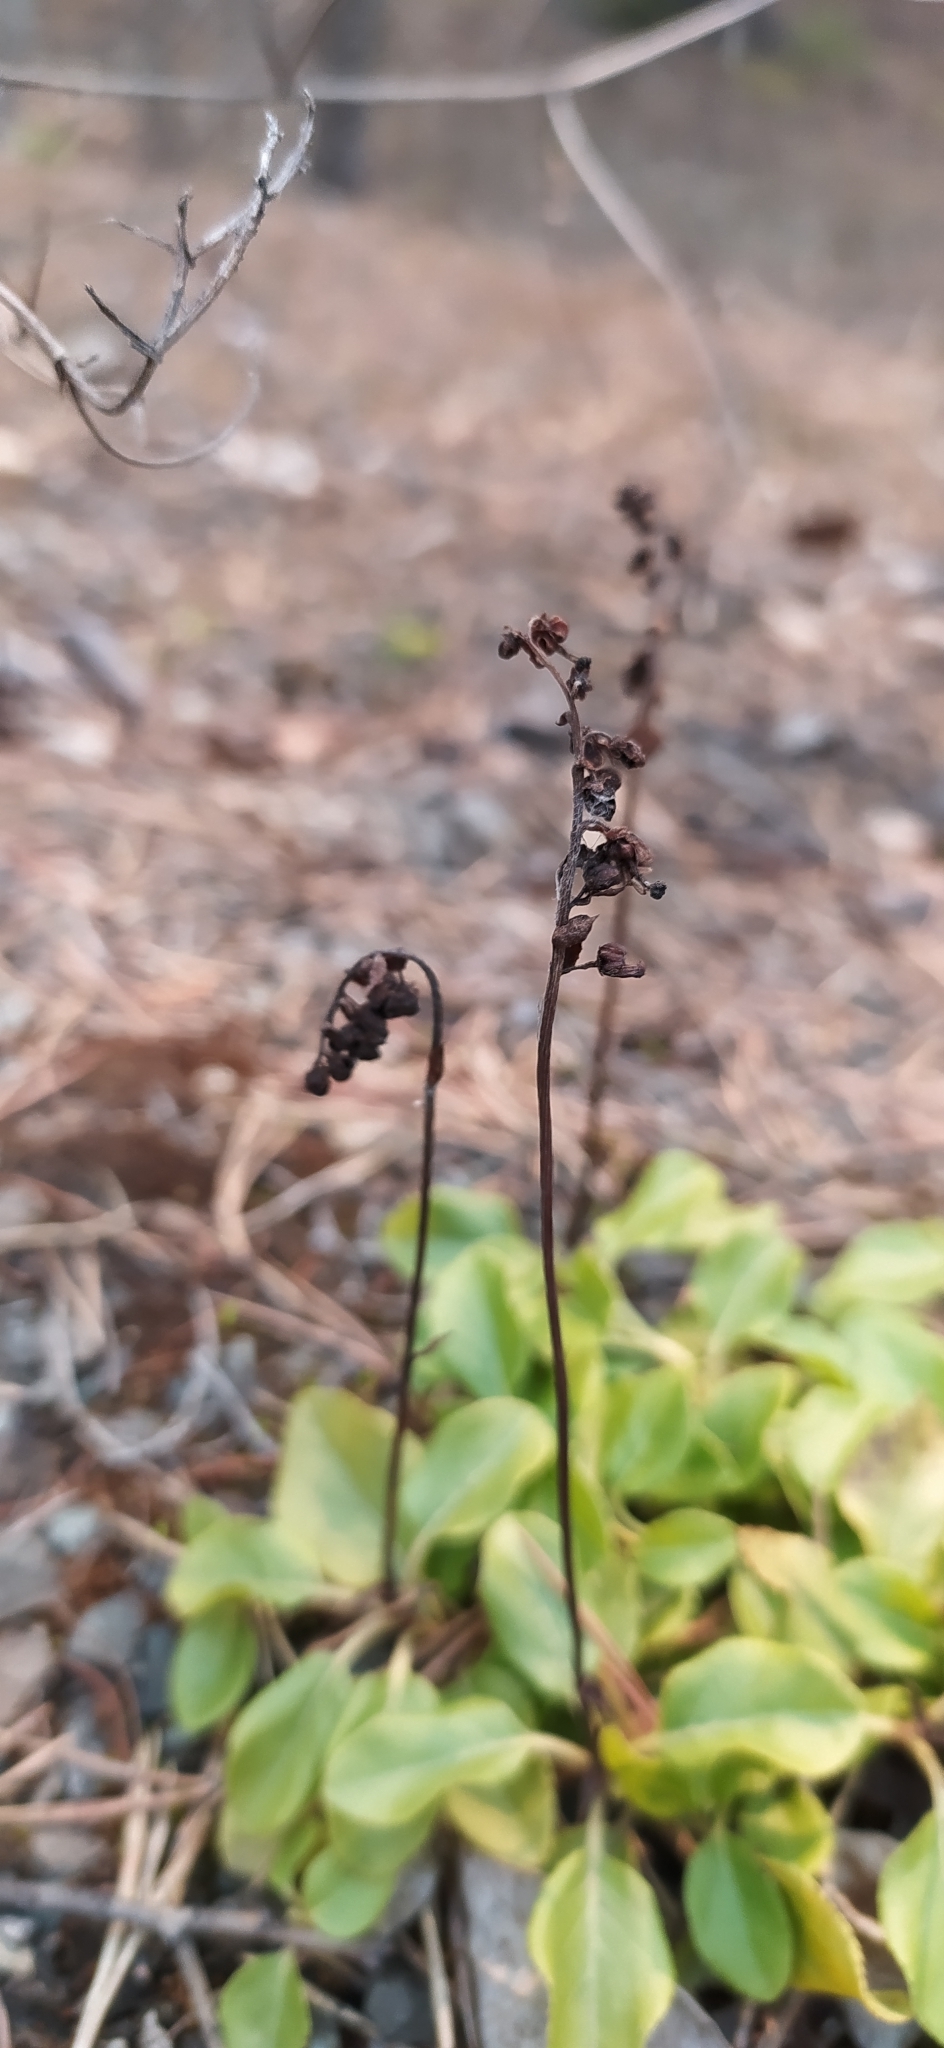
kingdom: Plantae
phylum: Tracheophyta
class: Magnoliopsida
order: Ericales
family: Ericaceae
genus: Orthilia
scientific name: Orthilia secunda
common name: One-sided orthilia
